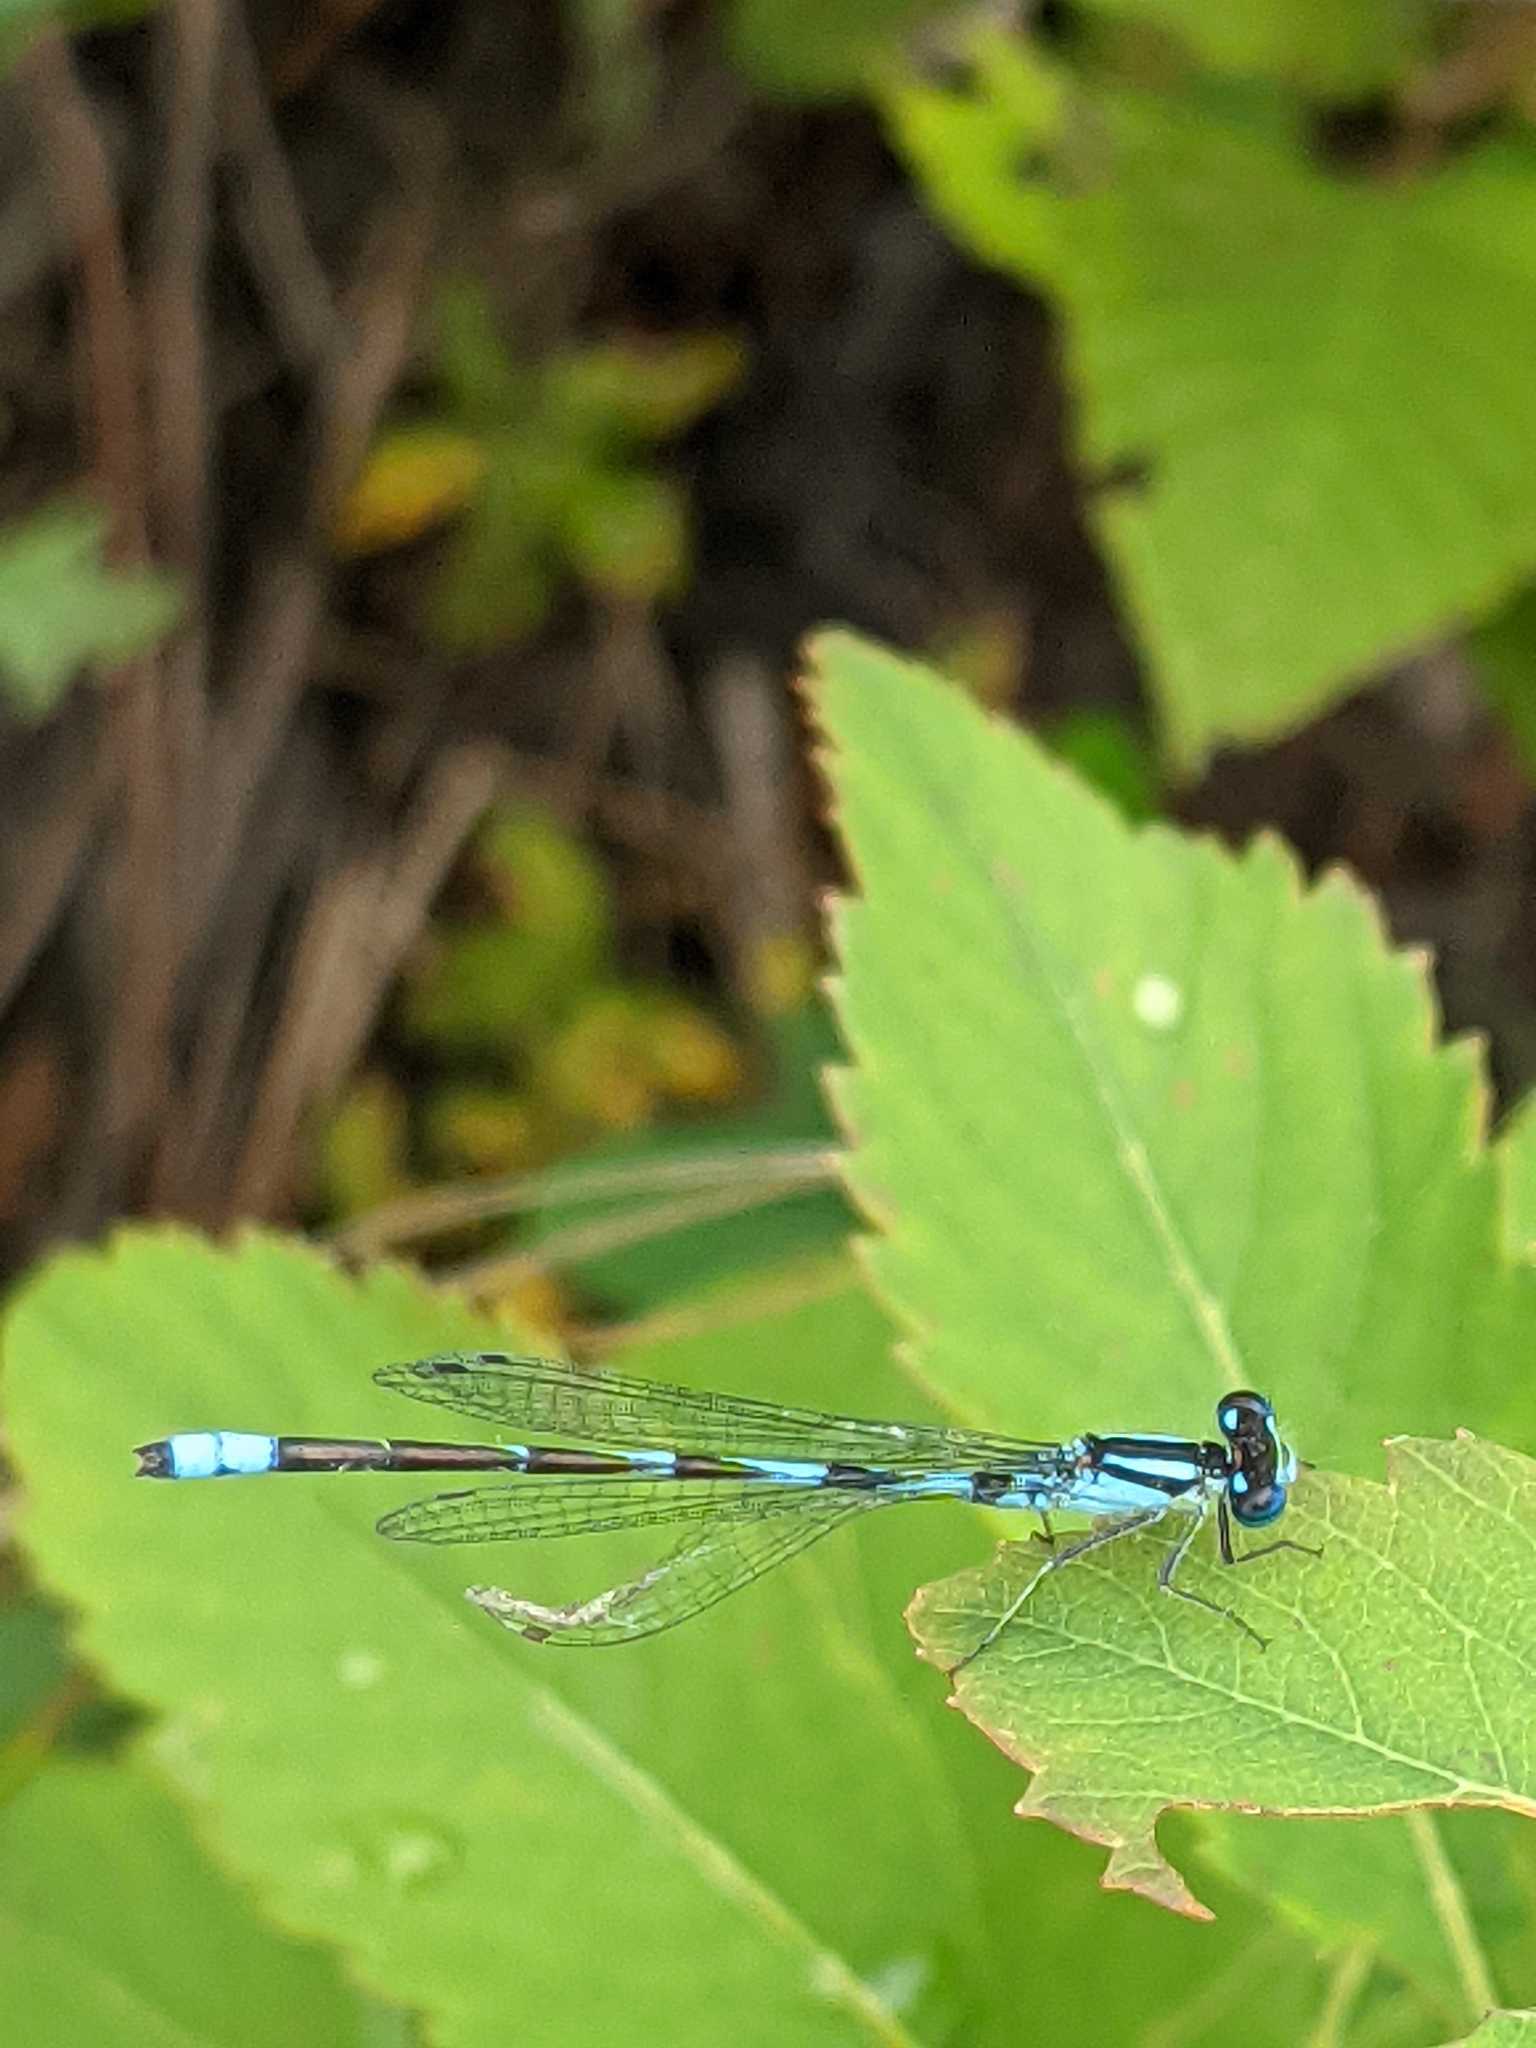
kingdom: Animalia
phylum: Arthropoda
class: Insecta
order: Odonata
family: Coenagrionidae
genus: Enallagma
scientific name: Enallagma hageni
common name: Hagen's bluet
